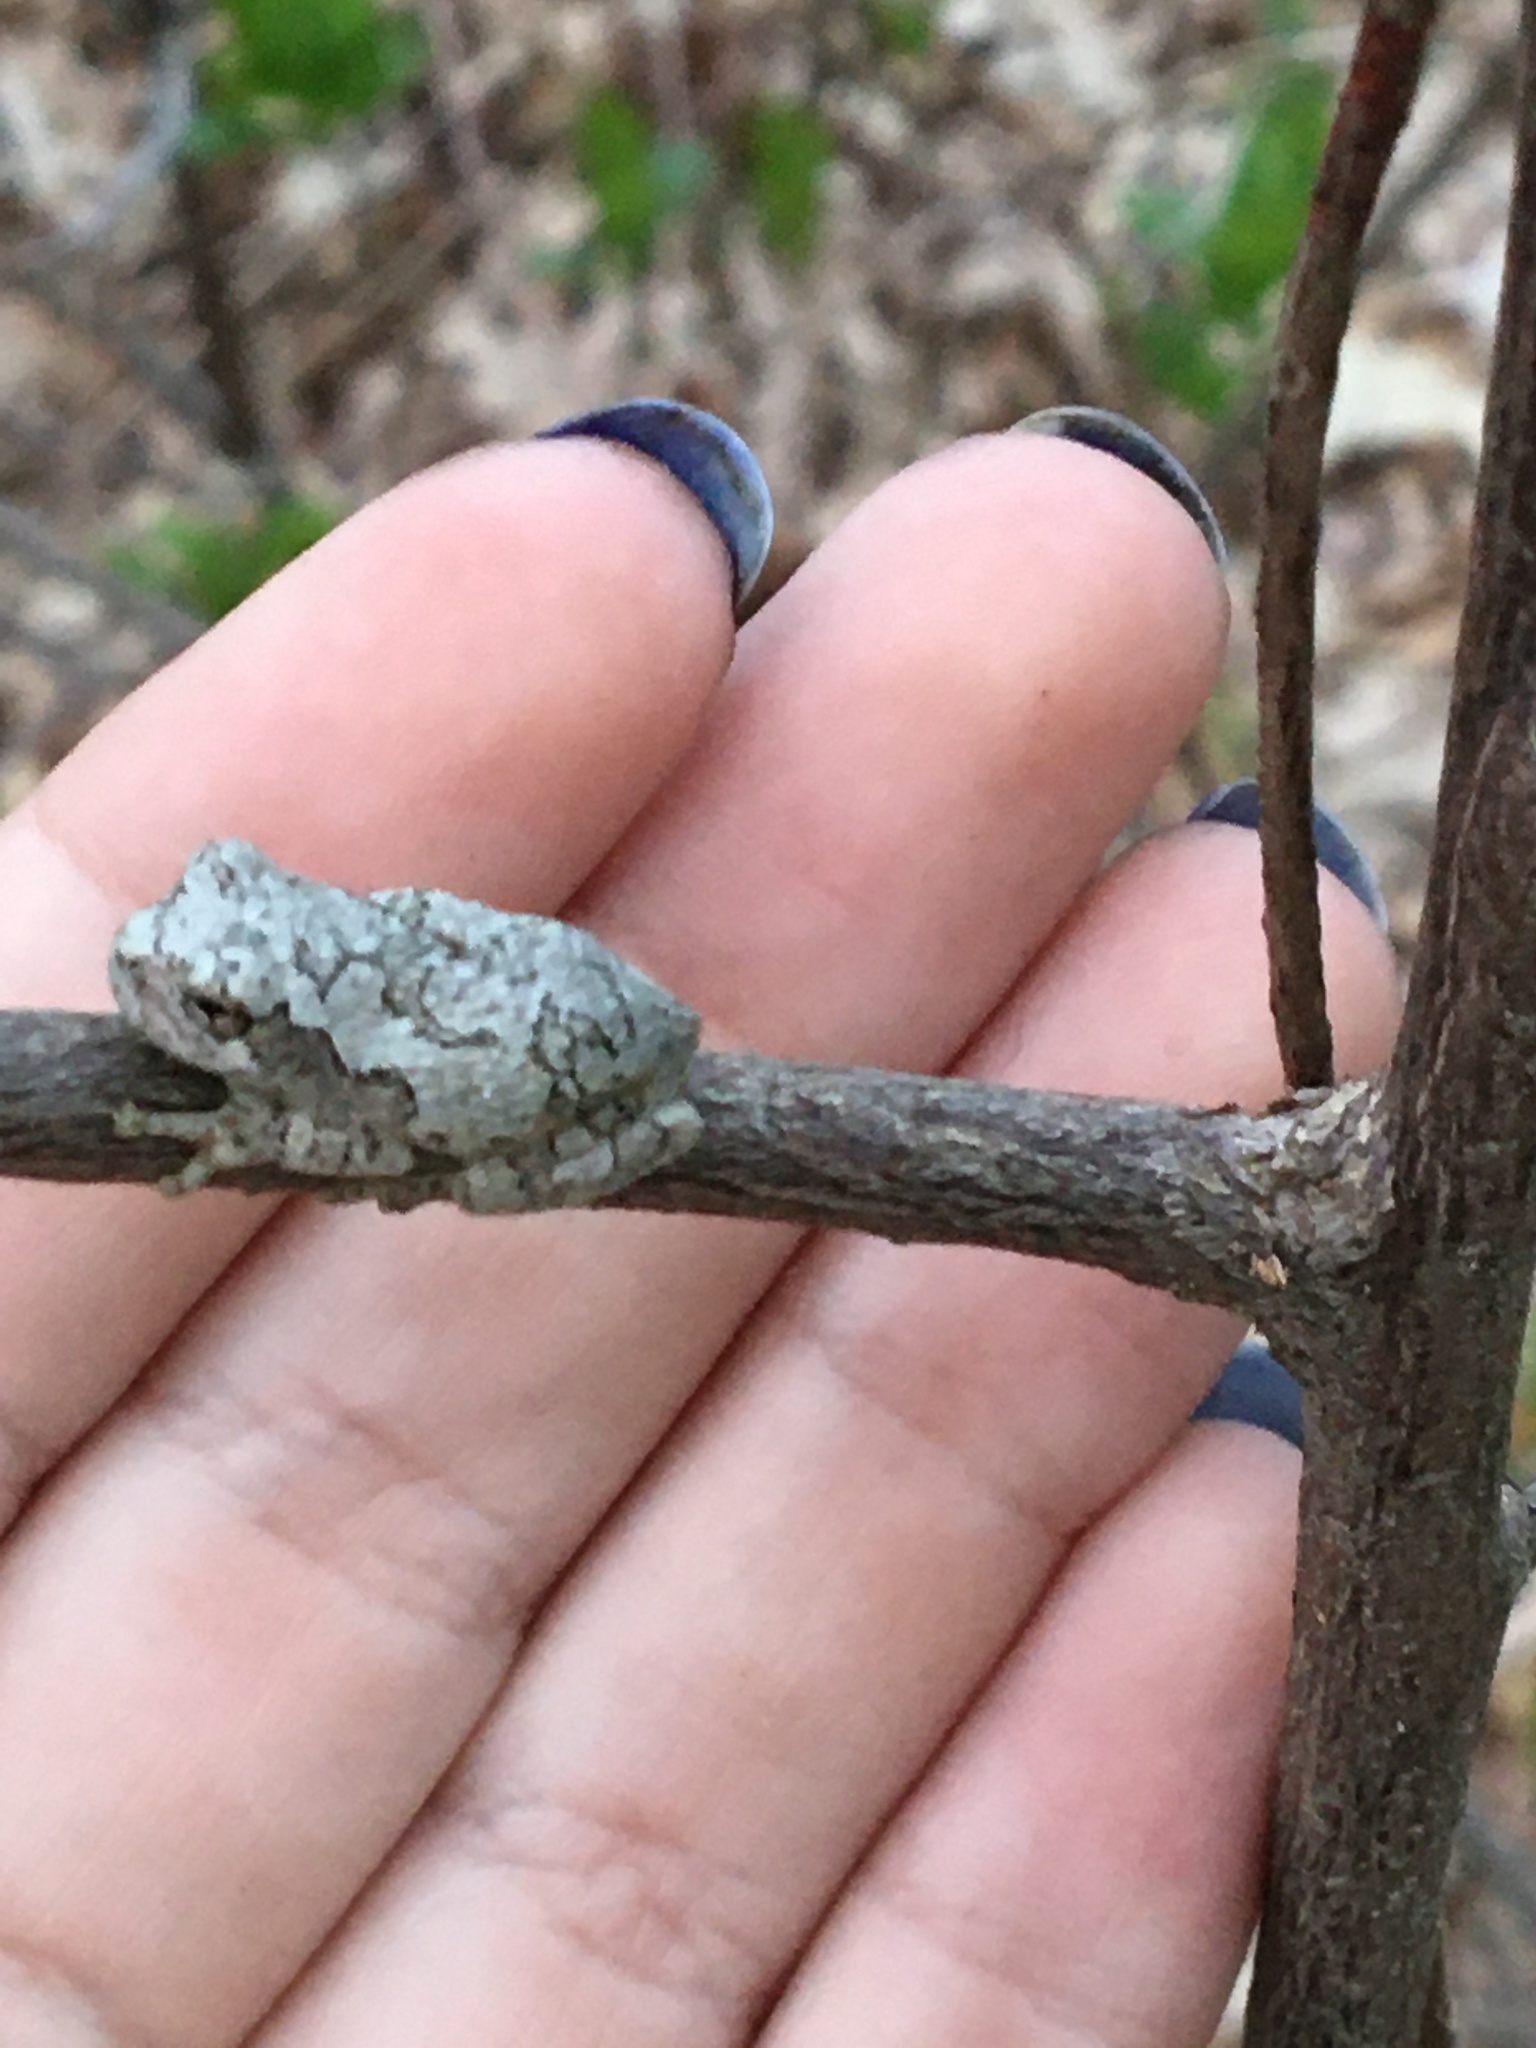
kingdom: Animalia
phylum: Chordata
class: Amphibia
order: Anura
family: Hylidae
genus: Dryophytes
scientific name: Dryophytes versicolor
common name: Gray treefrog
